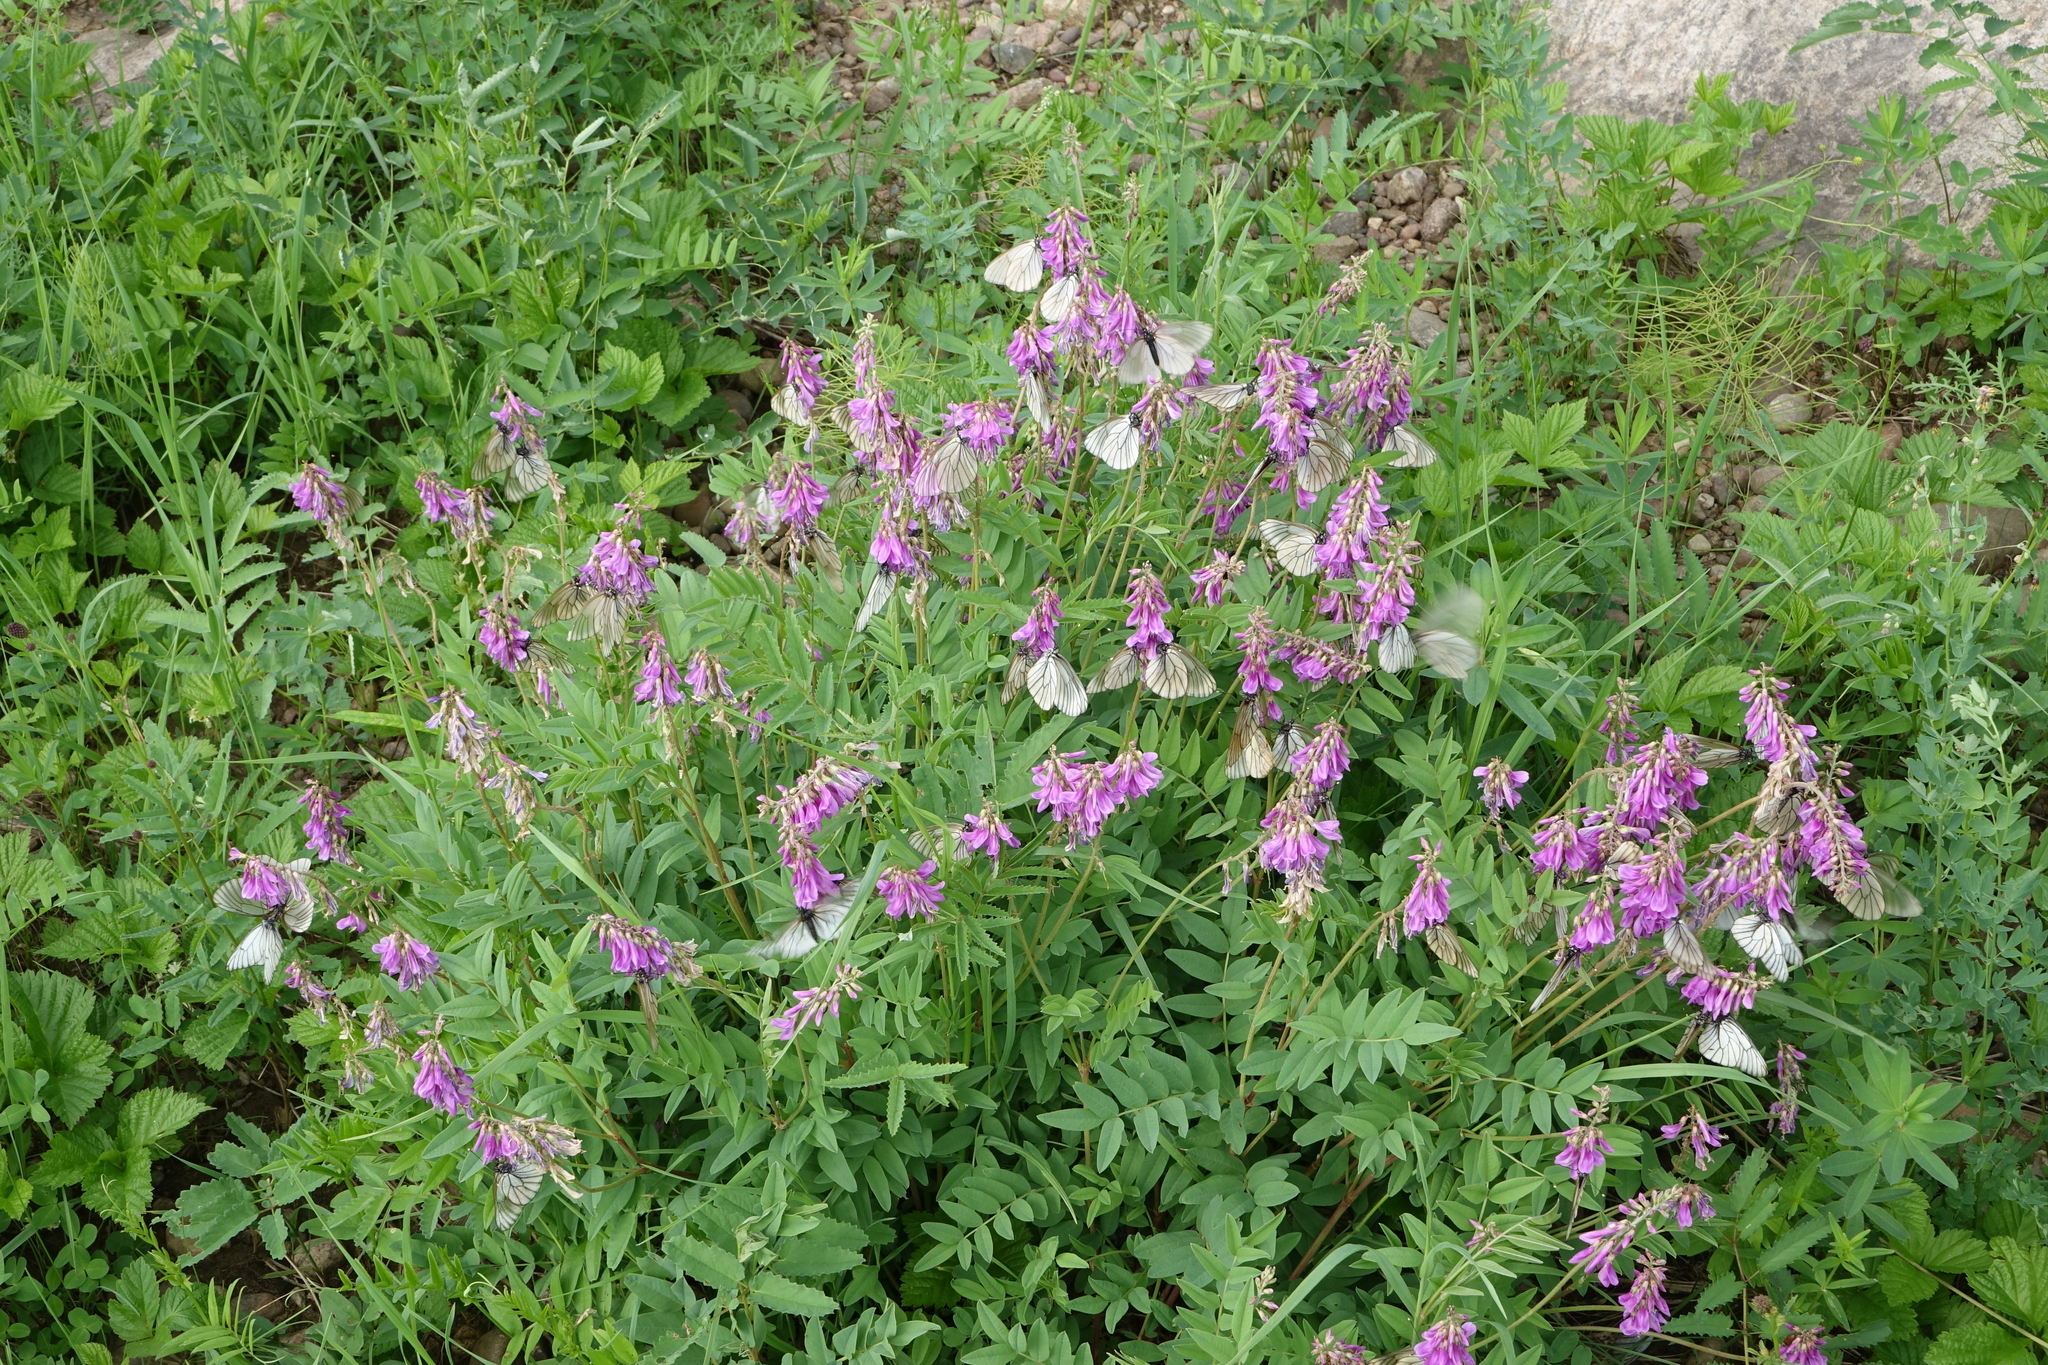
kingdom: Animalia
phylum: Arthropoda
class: Insecta
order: Lepidoptera
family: Pieridae
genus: Aporia
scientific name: Aporia crataegi
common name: Black-veined white
